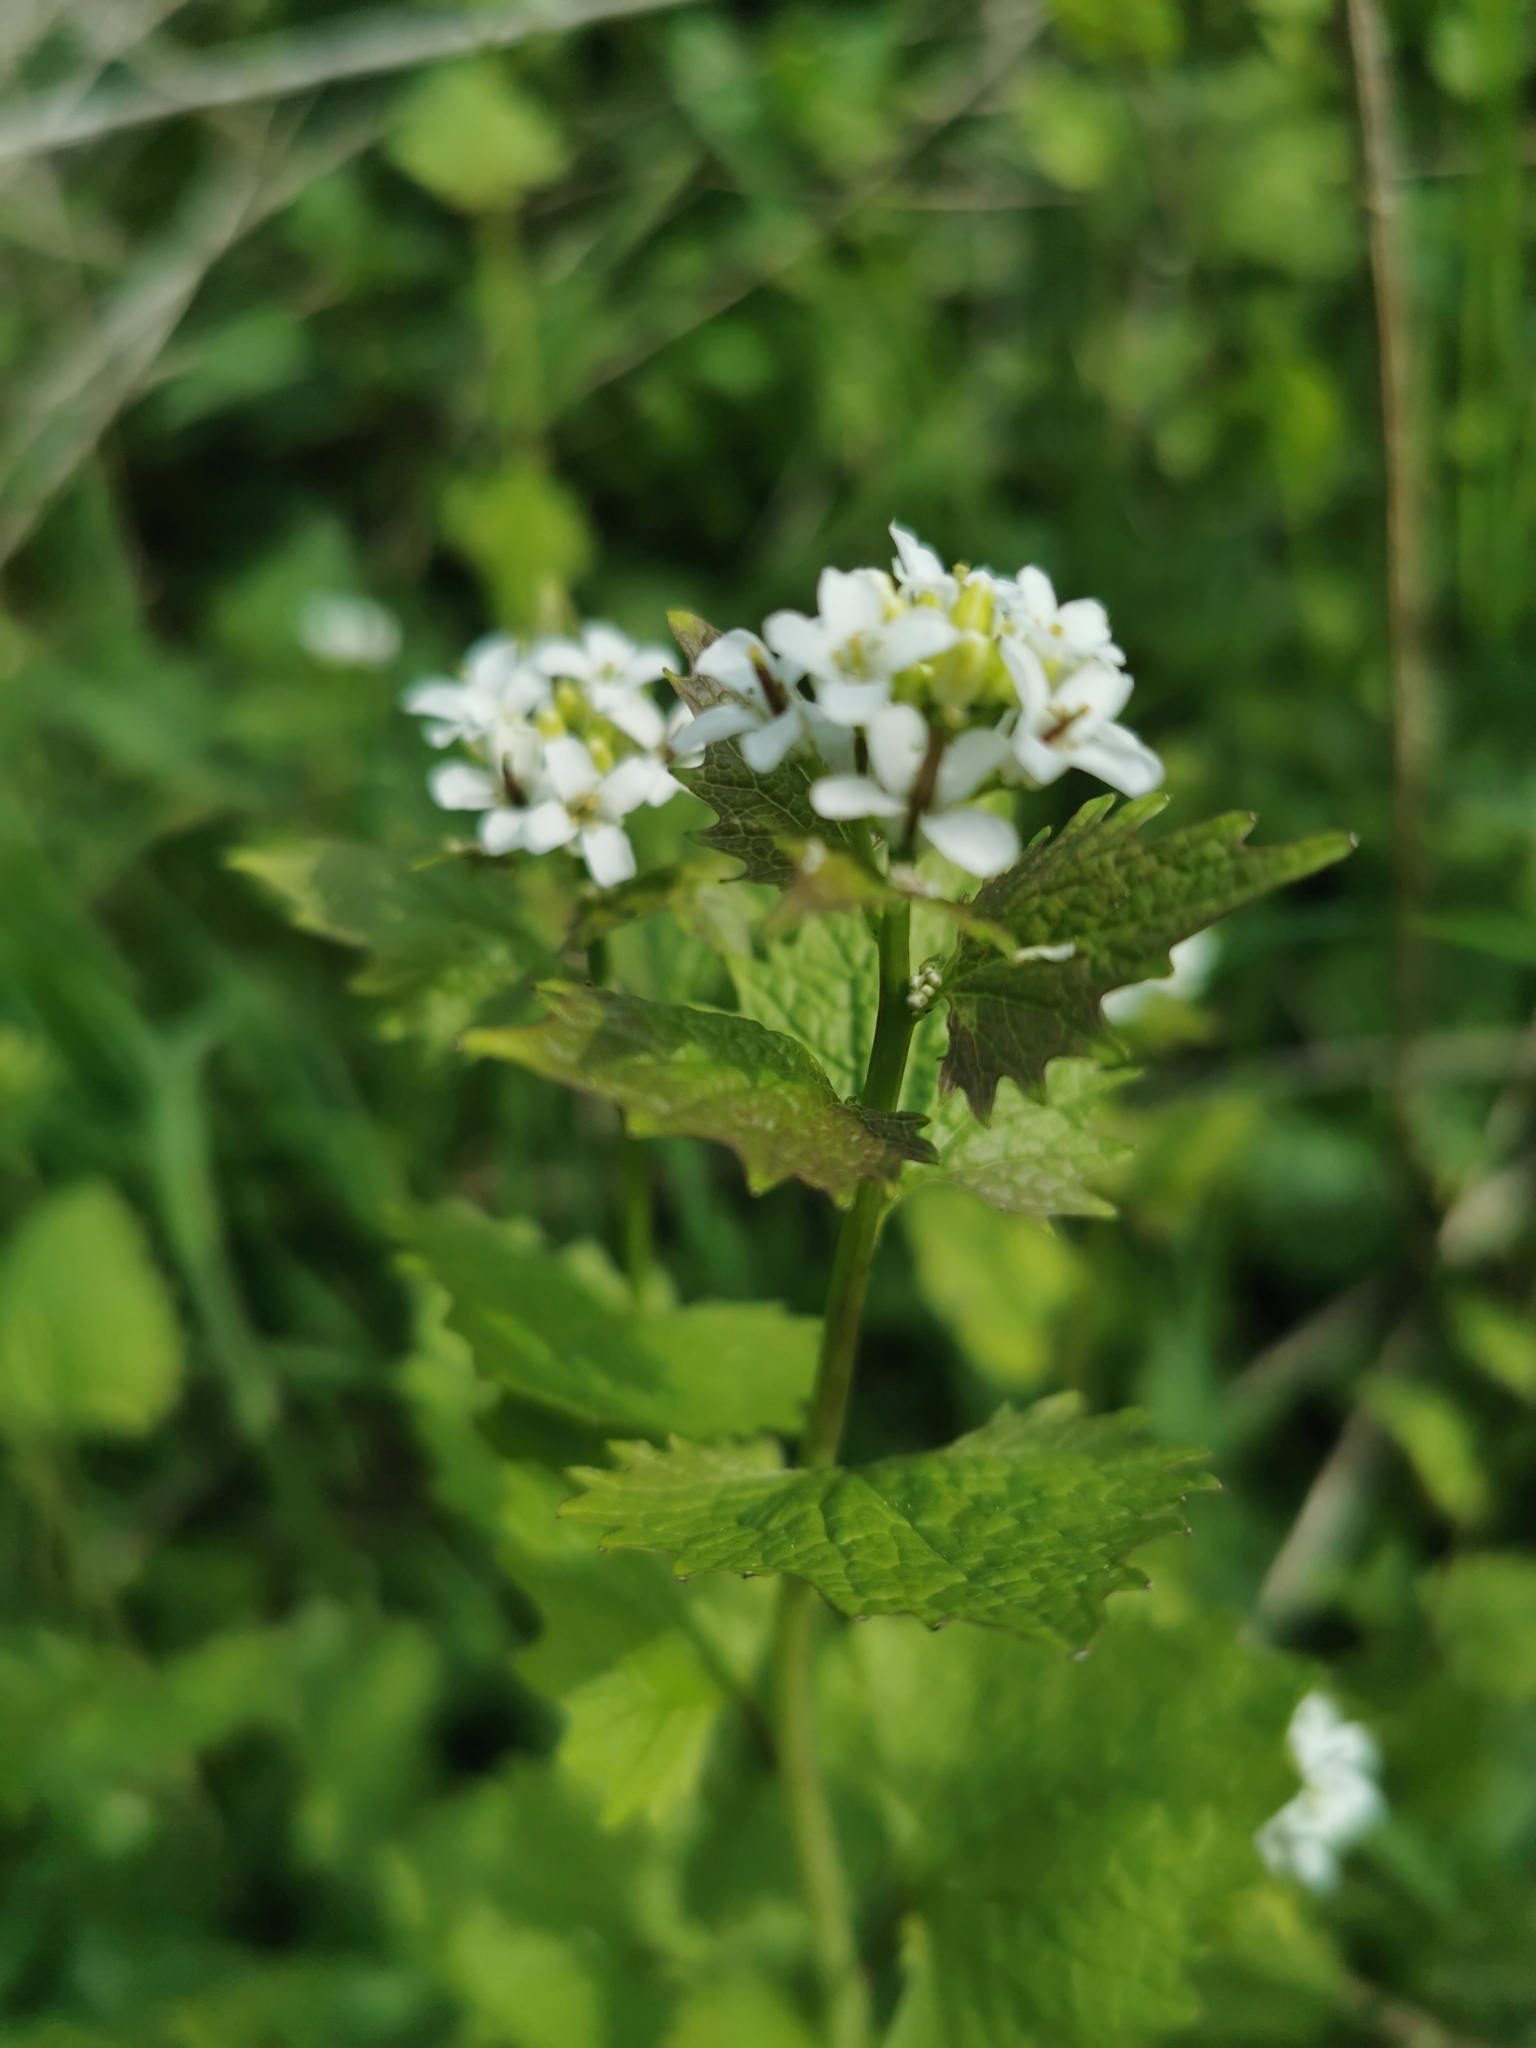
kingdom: Plantae
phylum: Tracheophyta
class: Magnoliopsida
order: Brassicales
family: Brassicaceae
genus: Alliaria
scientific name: Alliaria petiolata
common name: Garlic mustard
